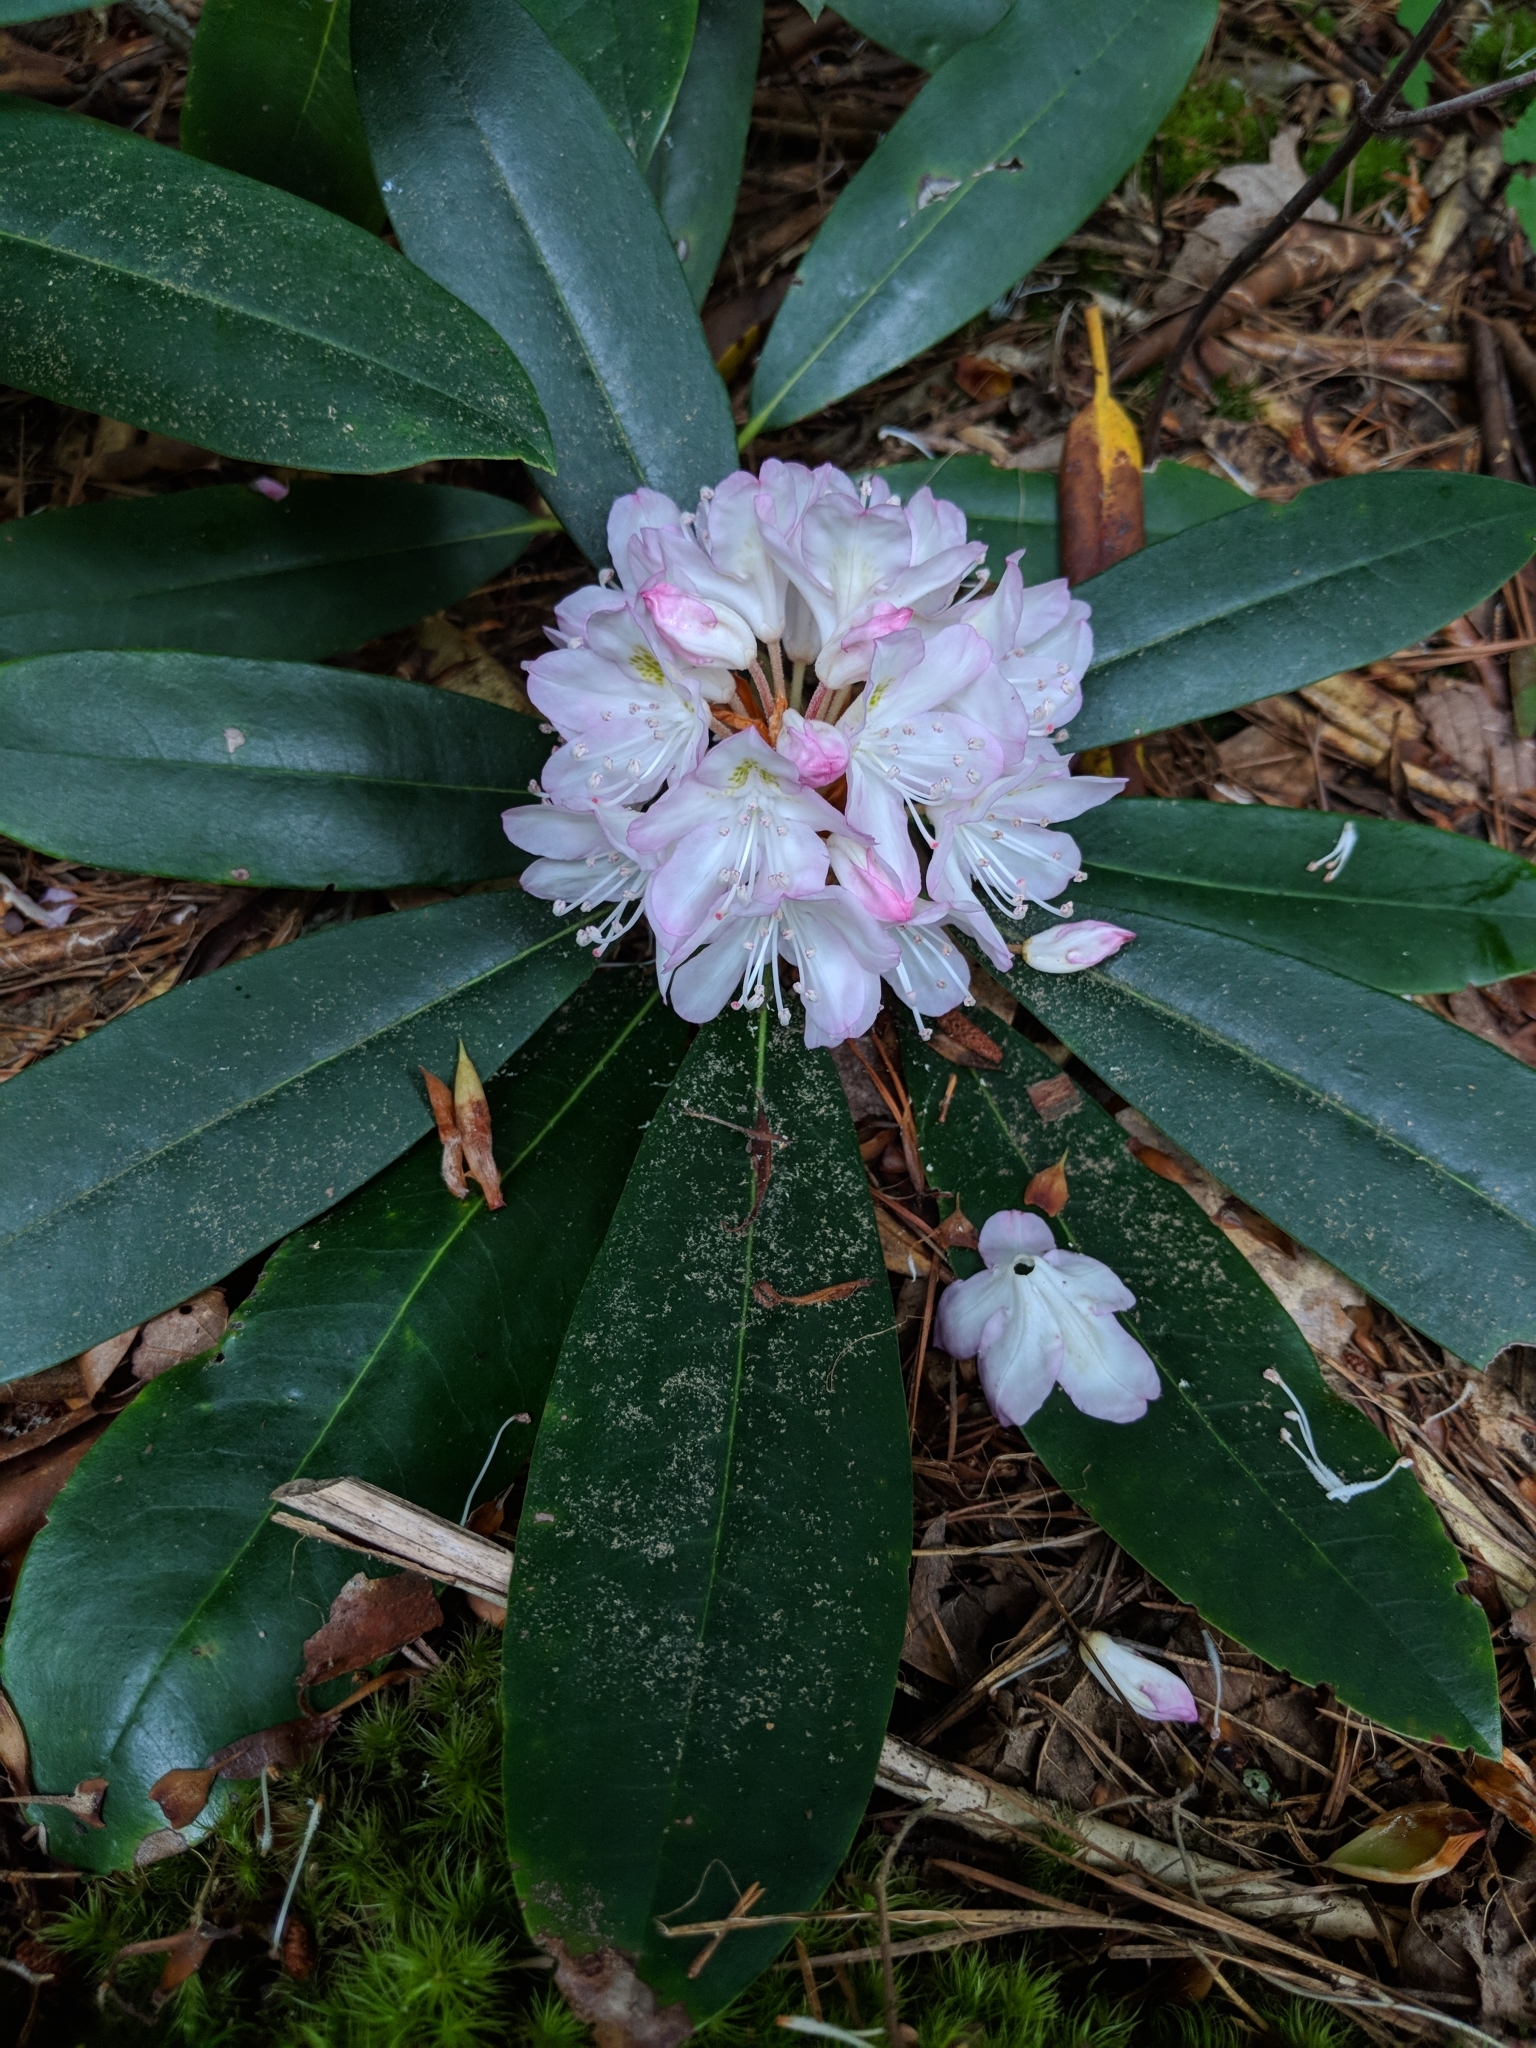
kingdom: Plantae
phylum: Tracheophyta
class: Magnoliopsida
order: Ericales
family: Ericaceae
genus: Rhododendron
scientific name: Rhododendron maximum
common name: Great rhododendron
